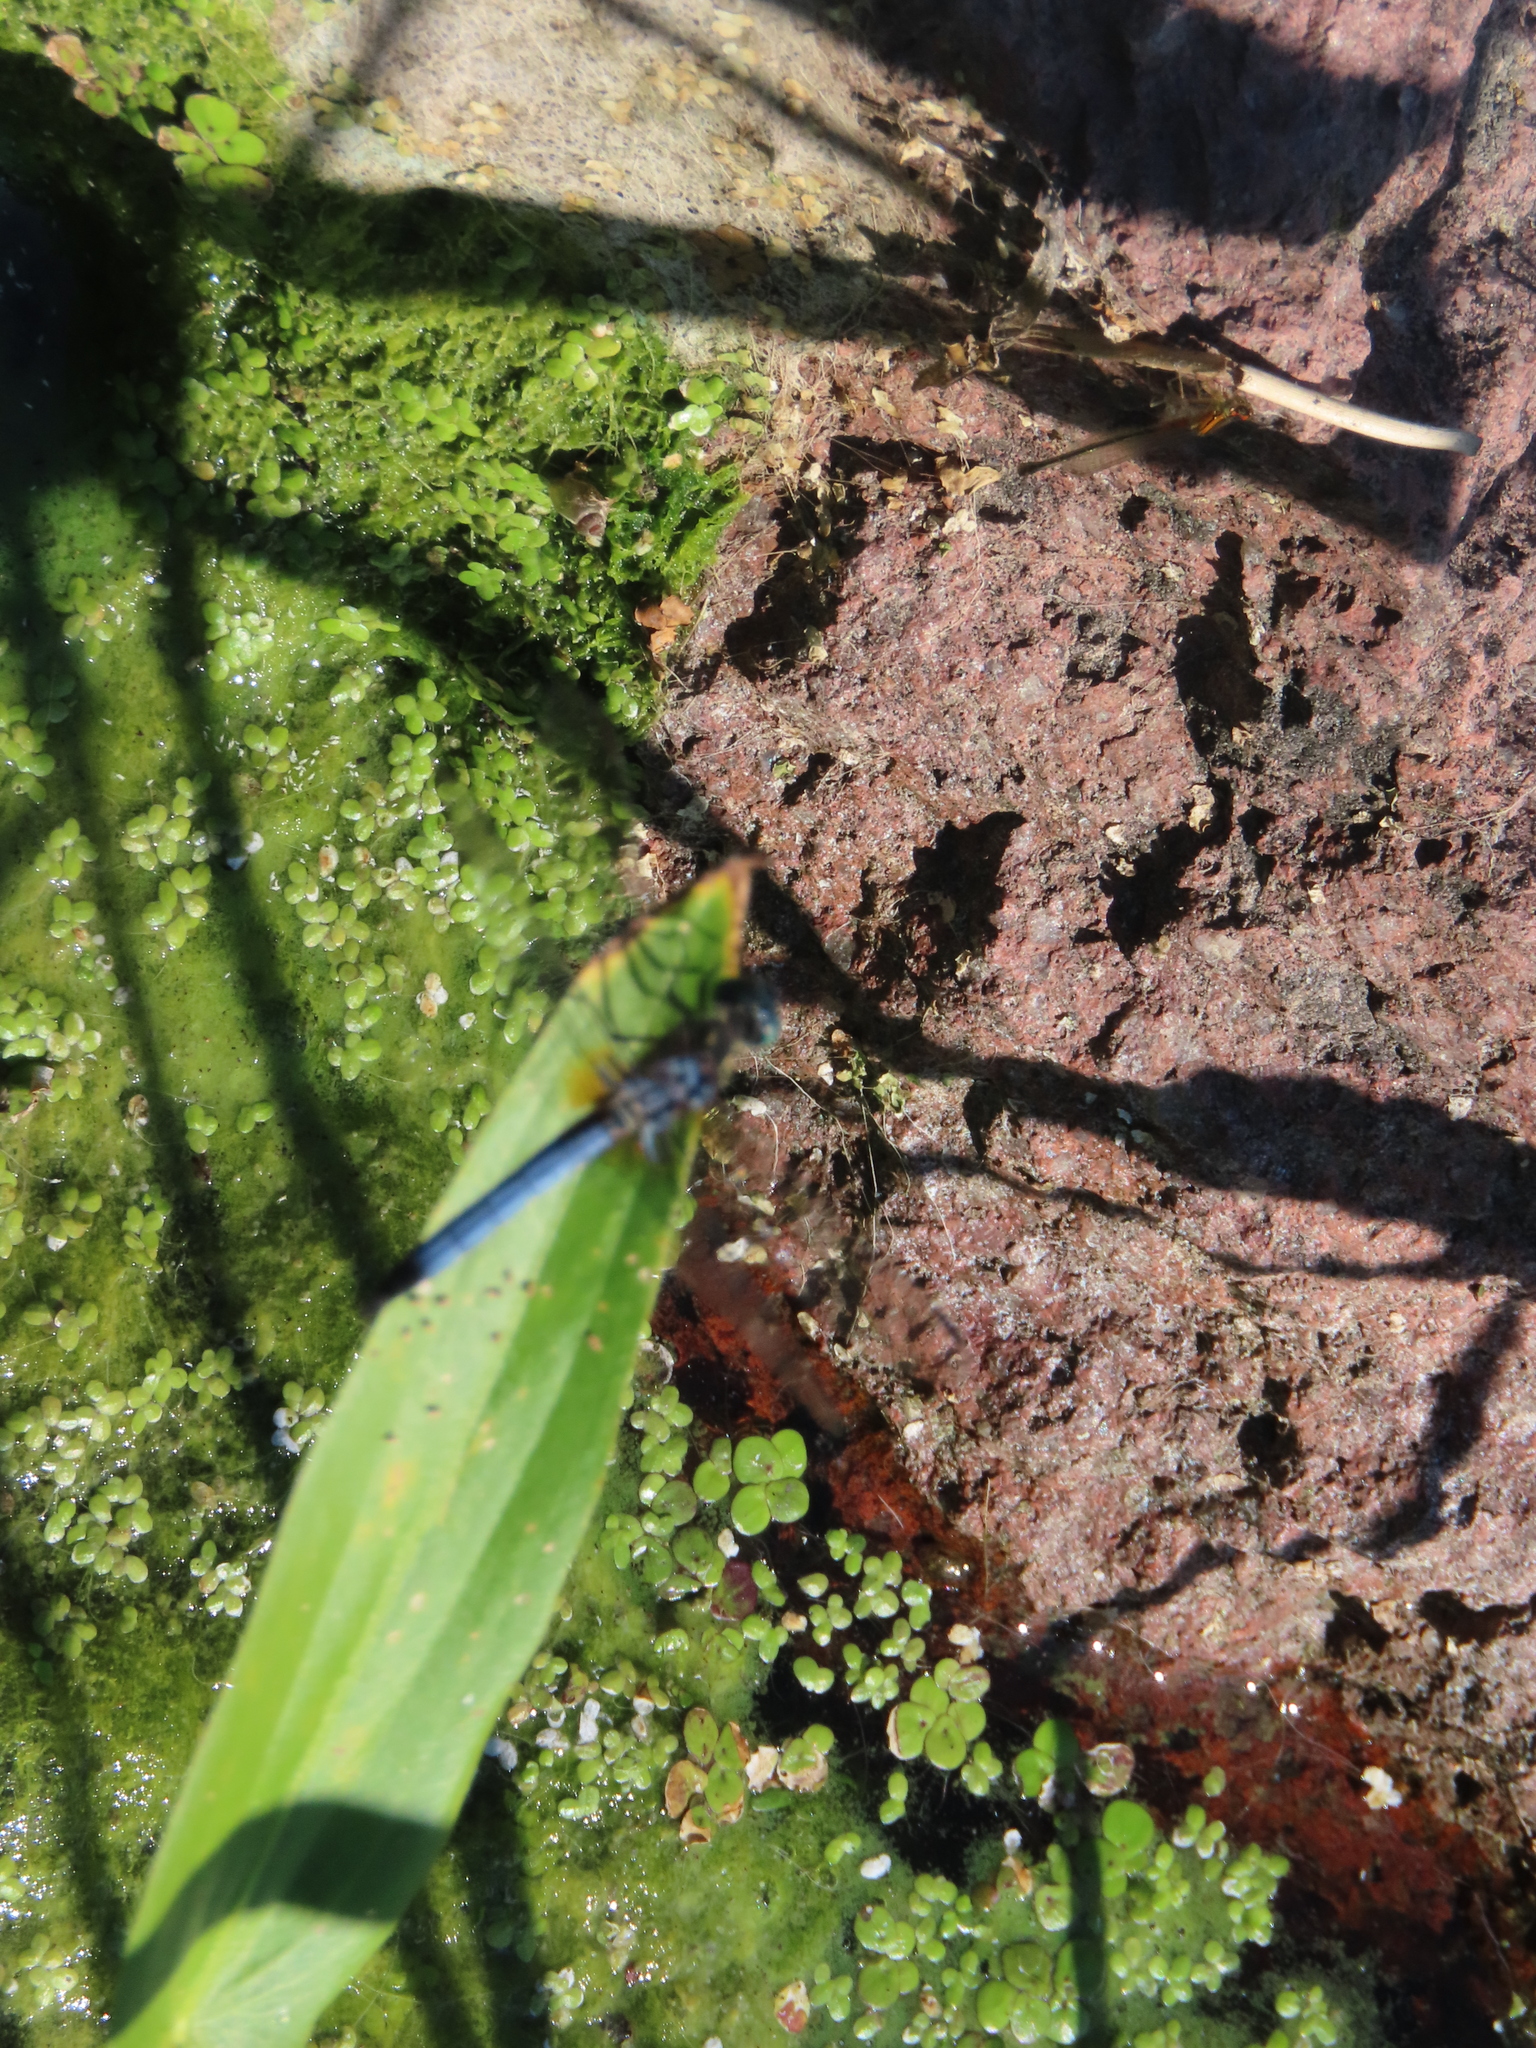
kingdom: Animalia
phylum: Arthropoda
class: Insecta
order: Odonata
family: Libellulidae
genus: Pachydiplax
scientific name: Pachydiplax longipennis
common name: Blue dasher
